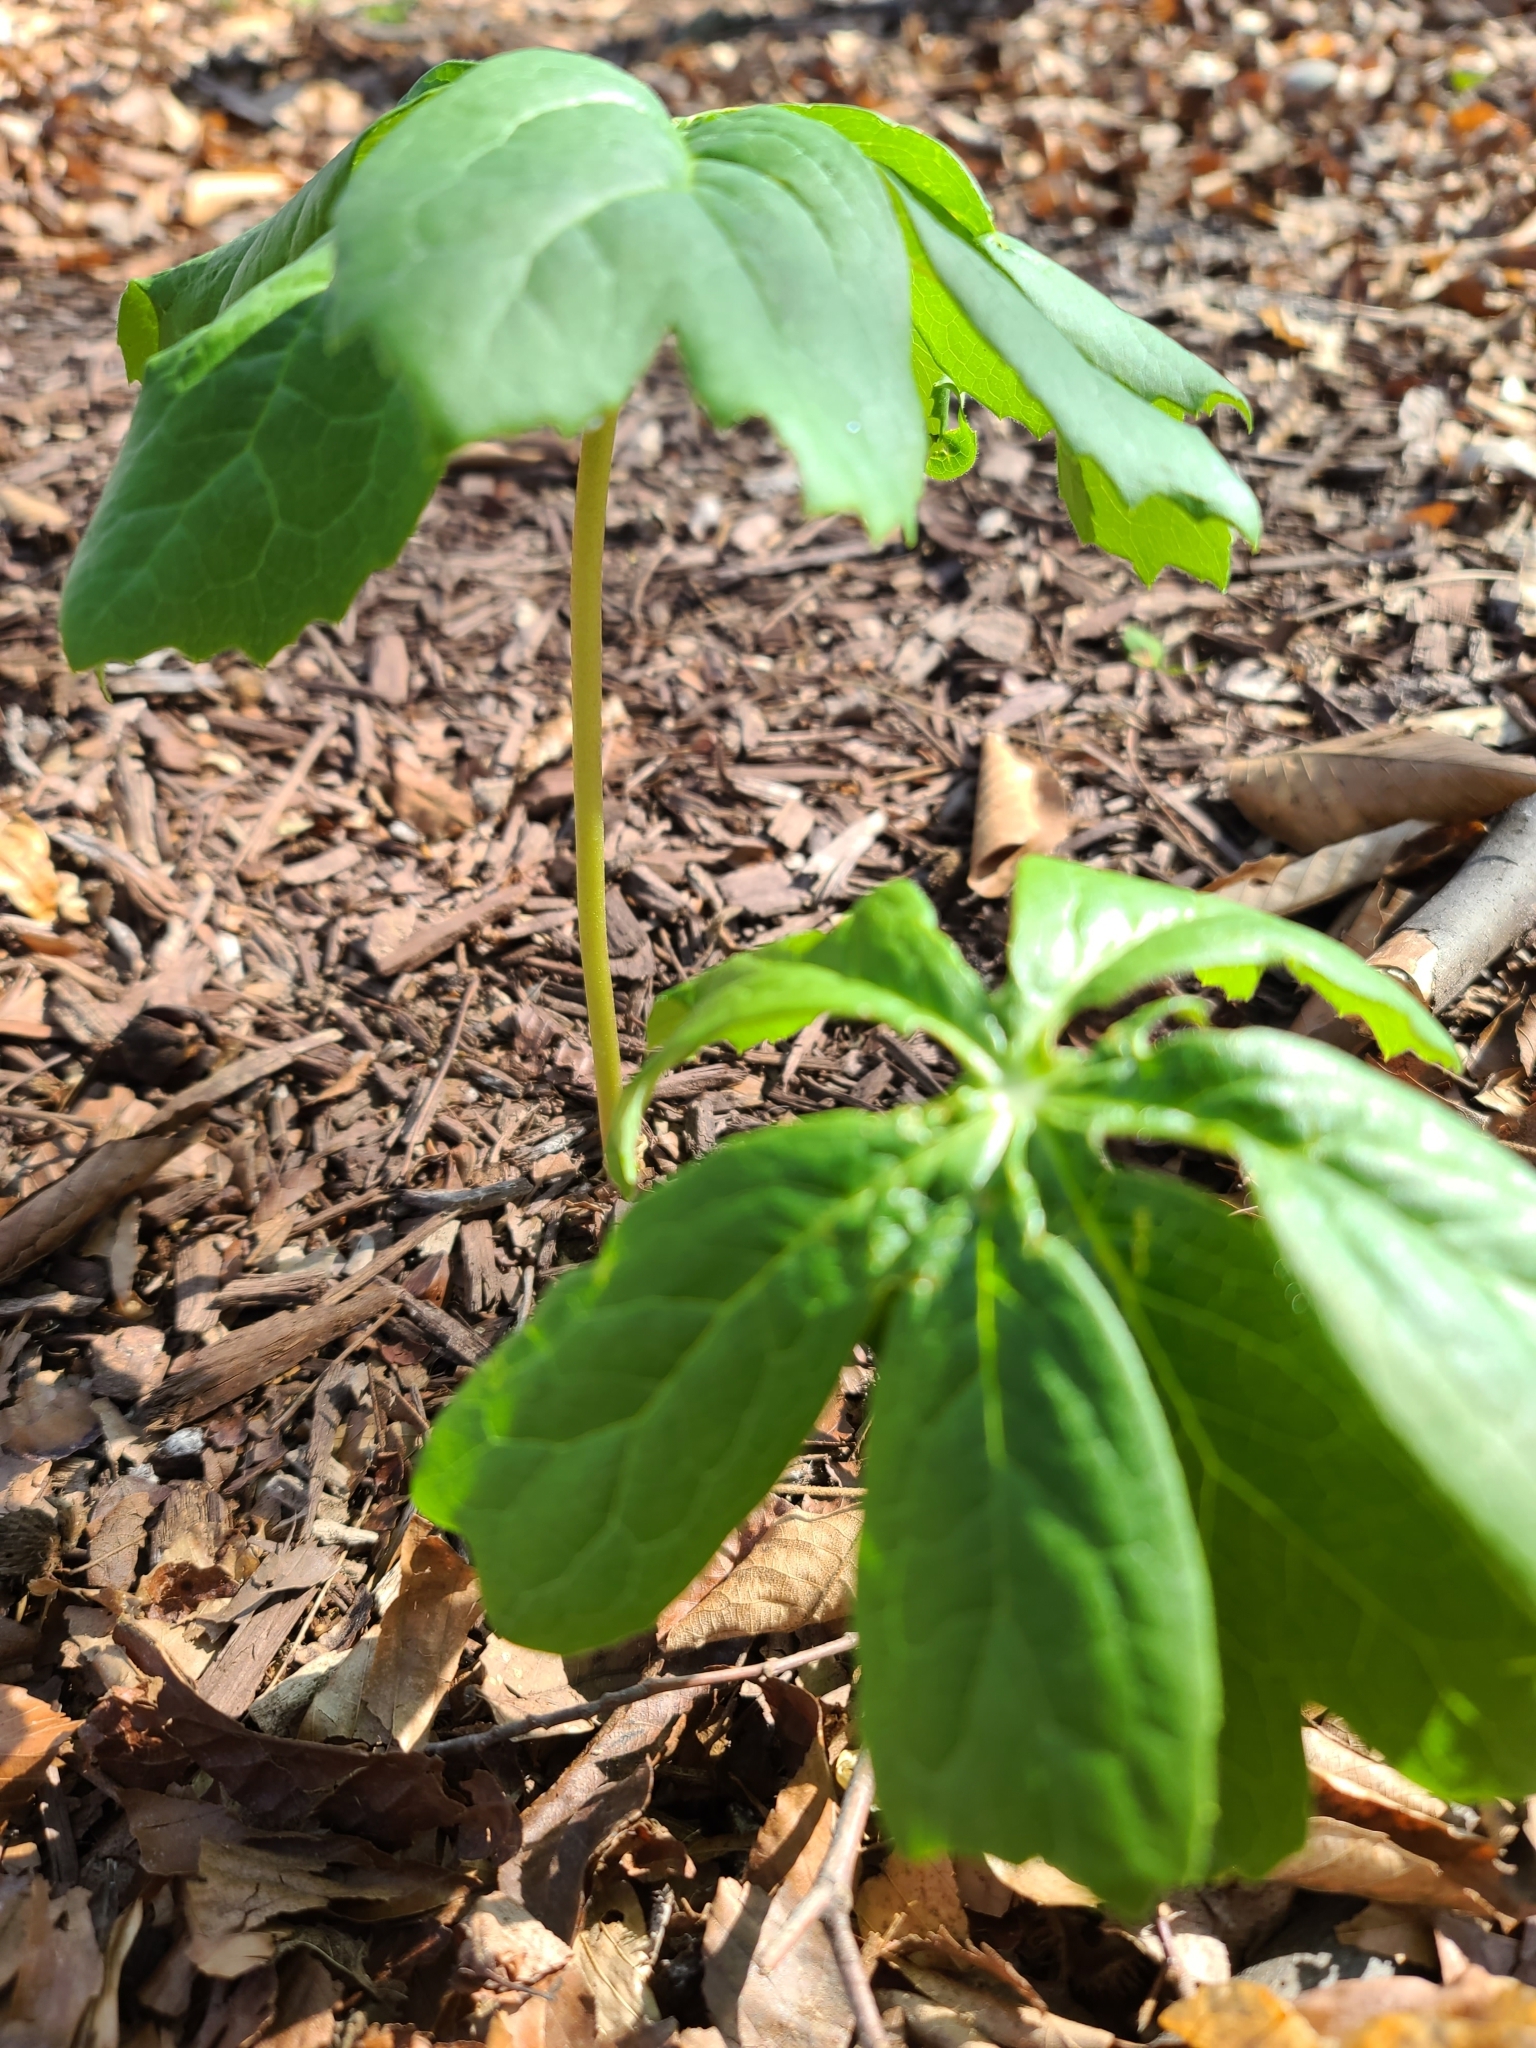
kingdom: Plantae
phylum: Tracheophyta
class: Magnoliopsida
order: Ranunculales
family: Berberidaceae
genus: Podophyllum
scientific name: Podophyllum peltatum
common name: Wild mandrake
